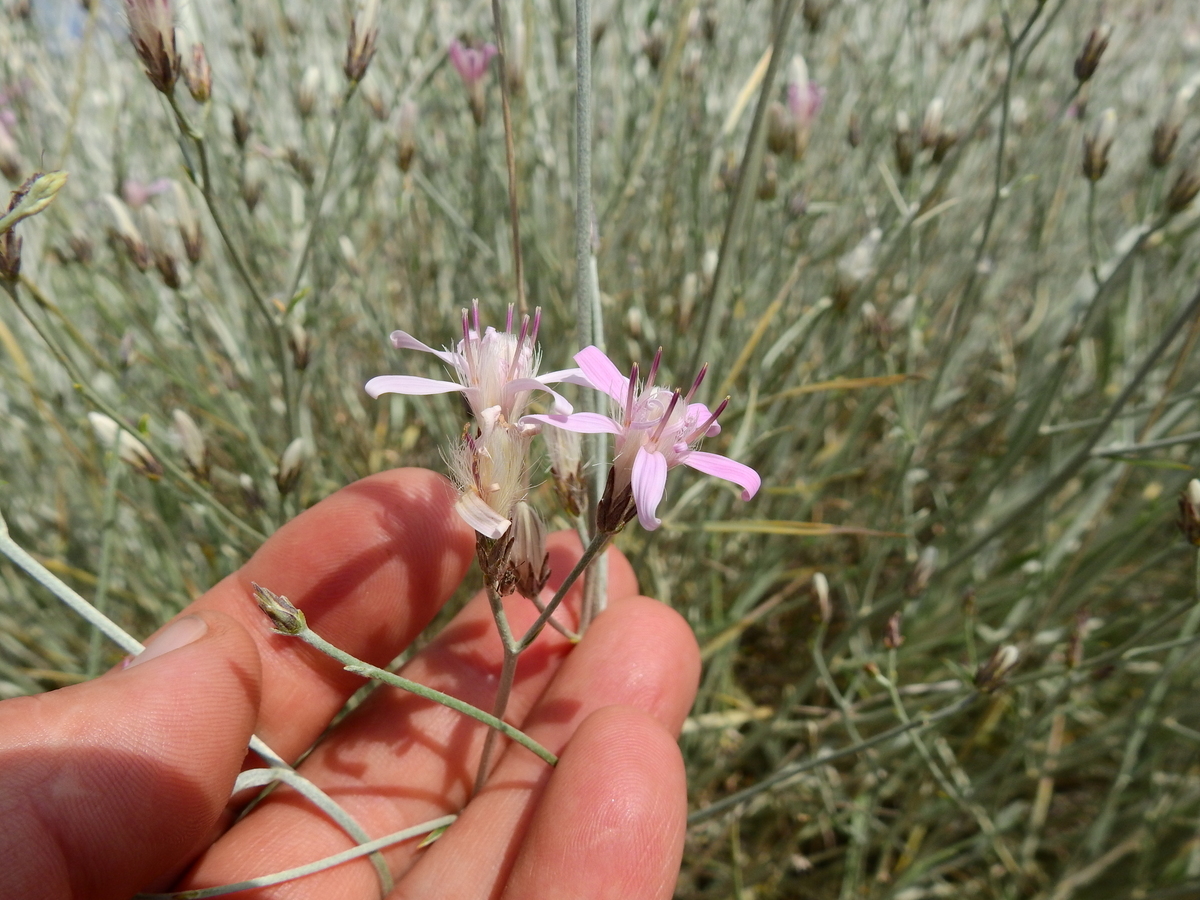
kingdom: Plantae
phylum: Tracheophyta
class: Magnoliopsida
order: Asterales
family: Asteraceae
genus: Hyalis
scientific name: Hyalis argentea
